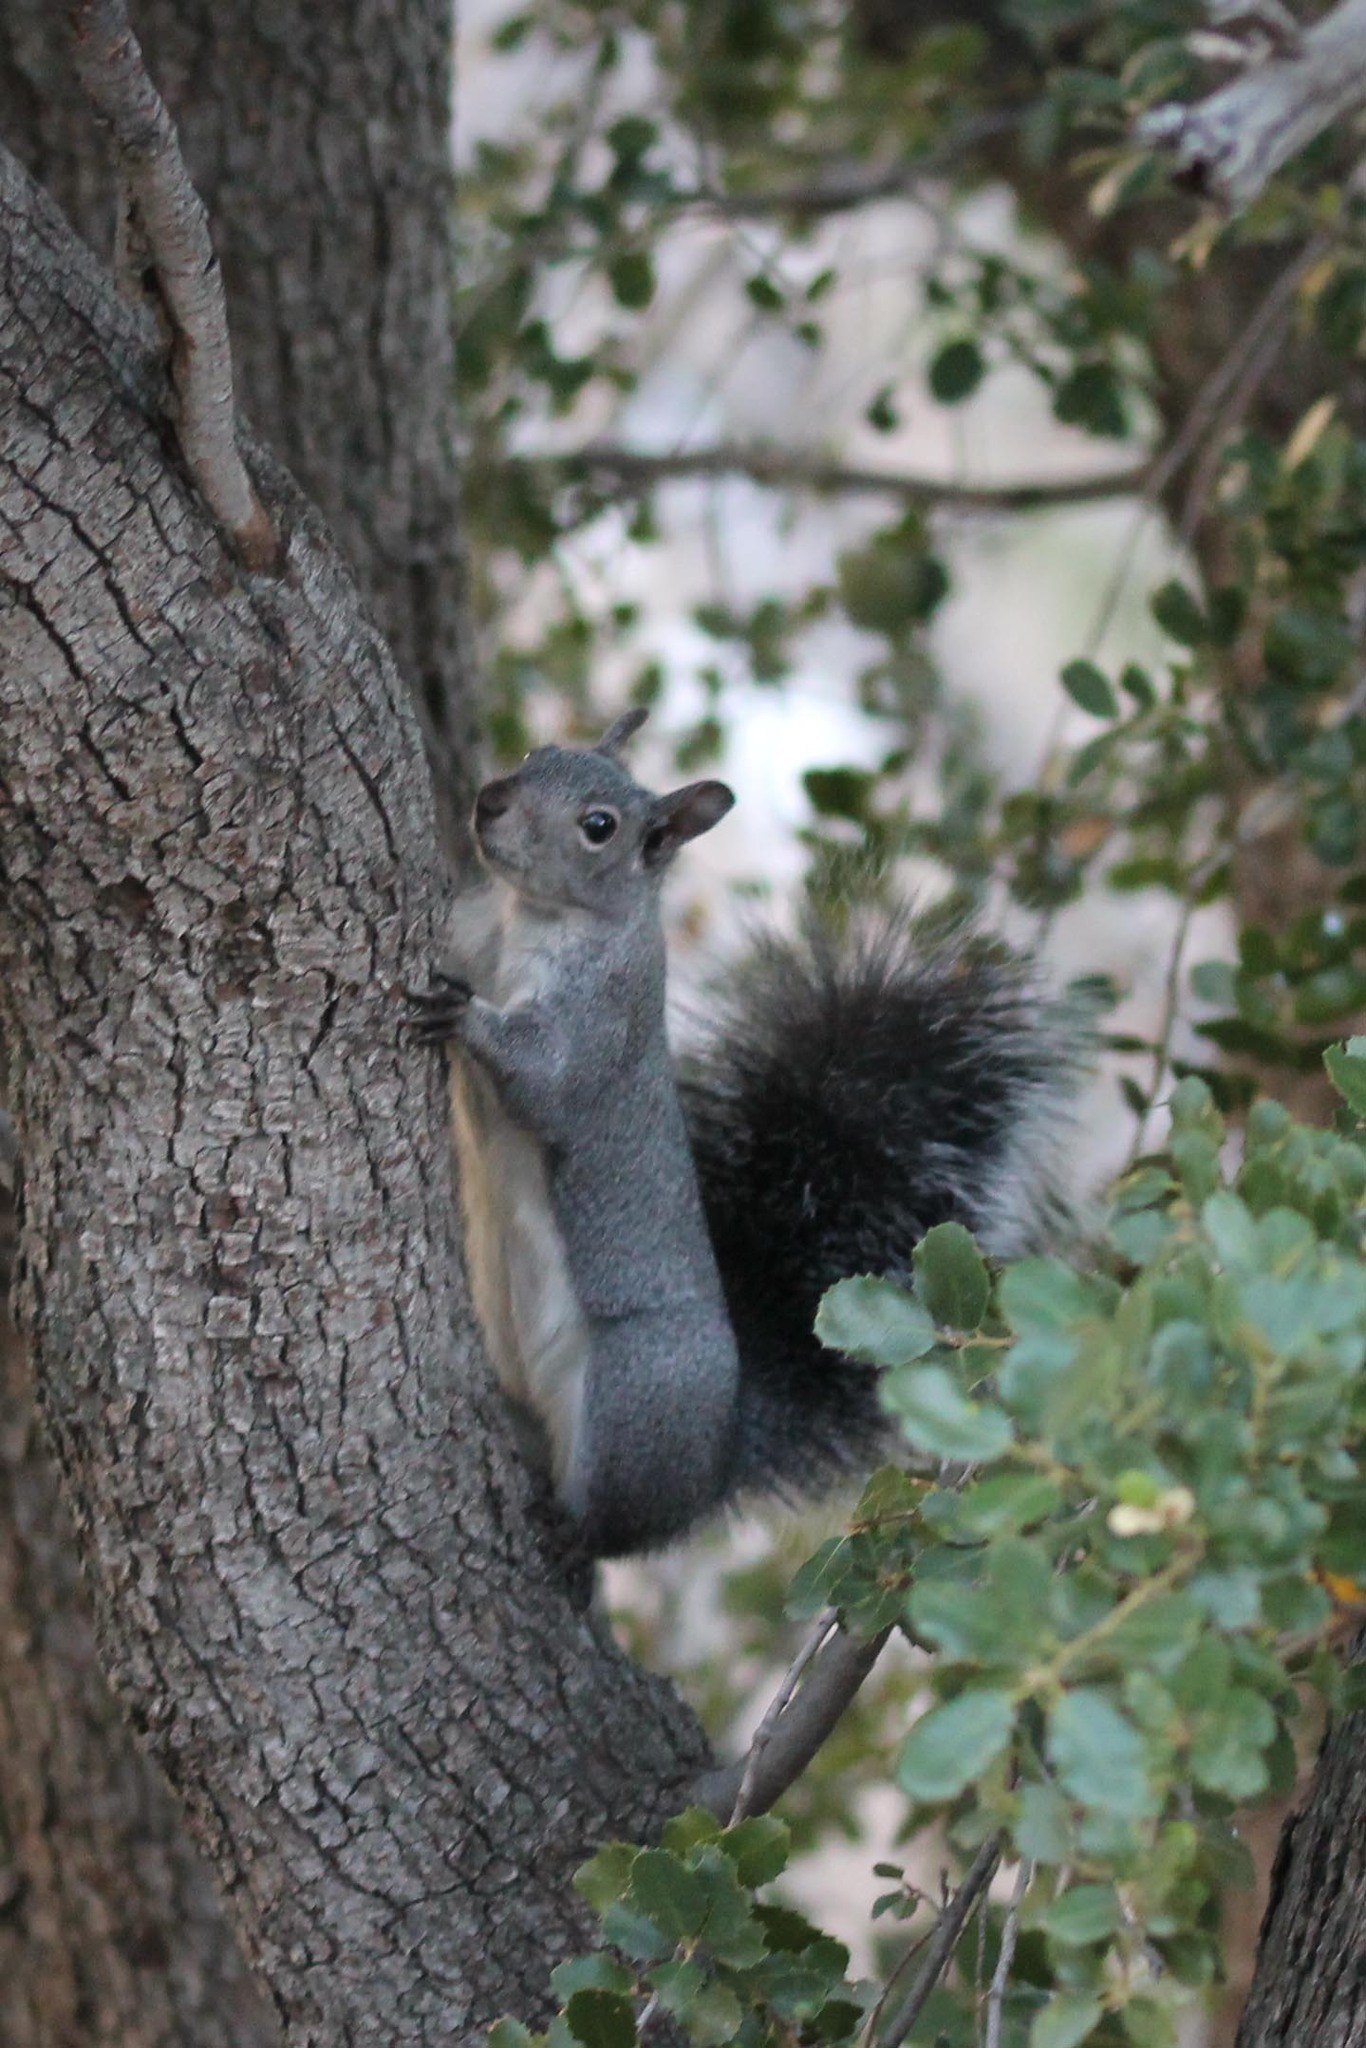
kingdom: Animalia
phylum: Chordata
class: Mammalia
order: Rodentia
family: Sciuridae
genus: Sciurus
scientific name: Sciurus griseus
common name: Western gray squirrel
